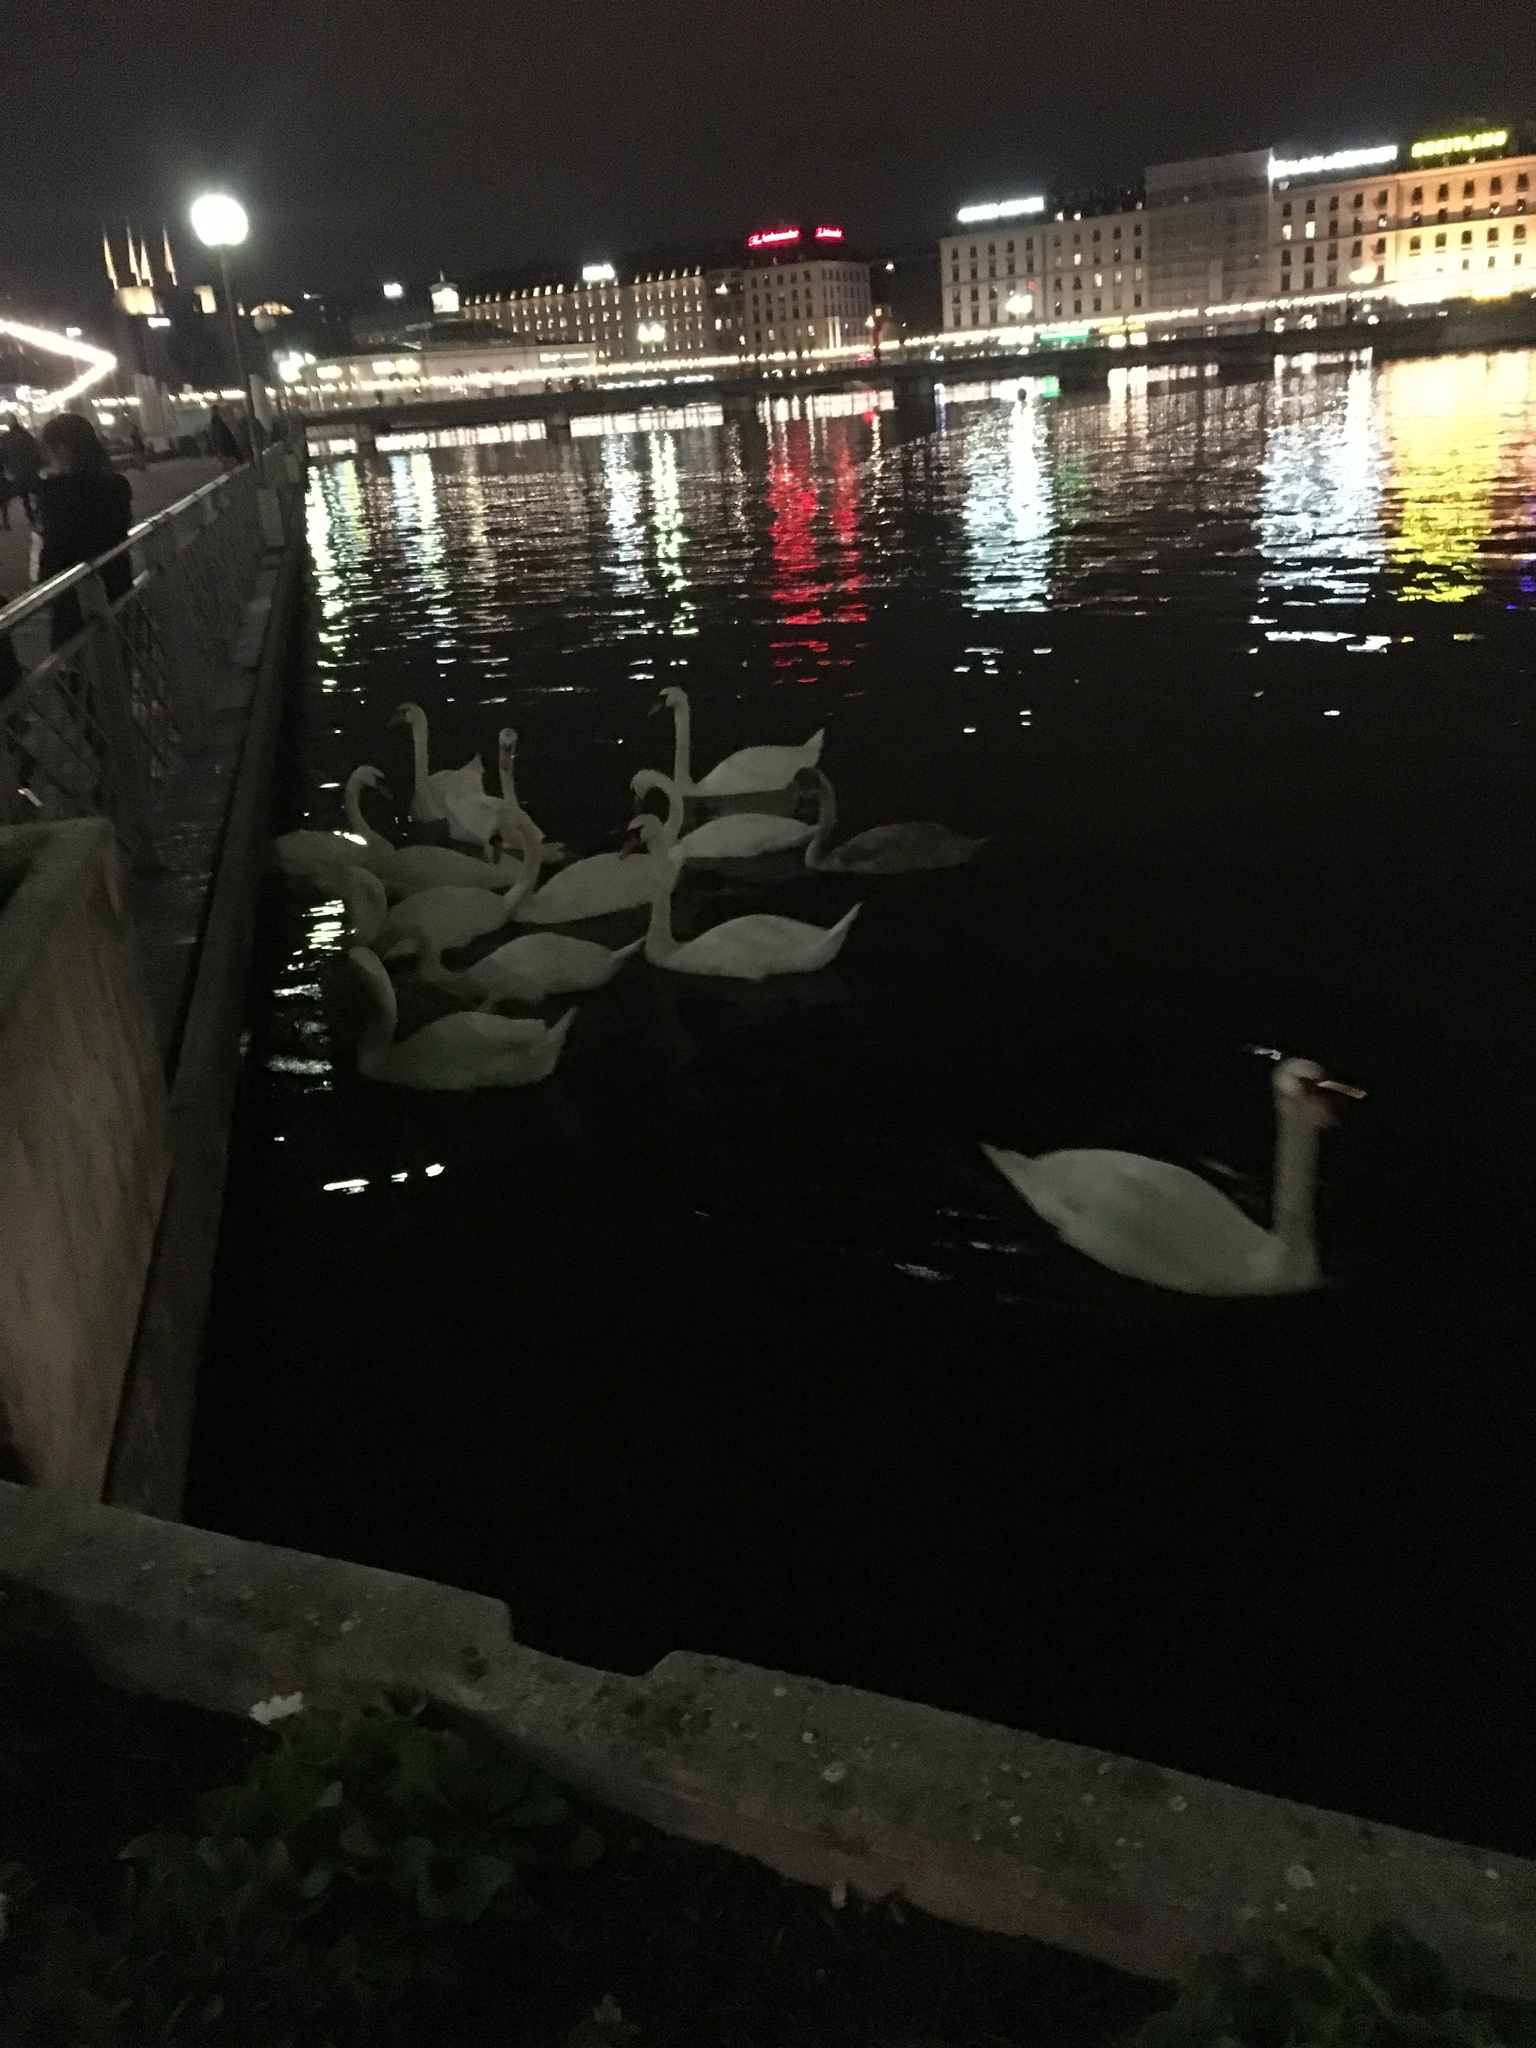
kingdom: Animalia
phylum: Chordata
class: Aves
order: Anseriformes
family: Anatidae
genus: Cygnus
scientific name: Cygnus olor
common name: Mute swan
